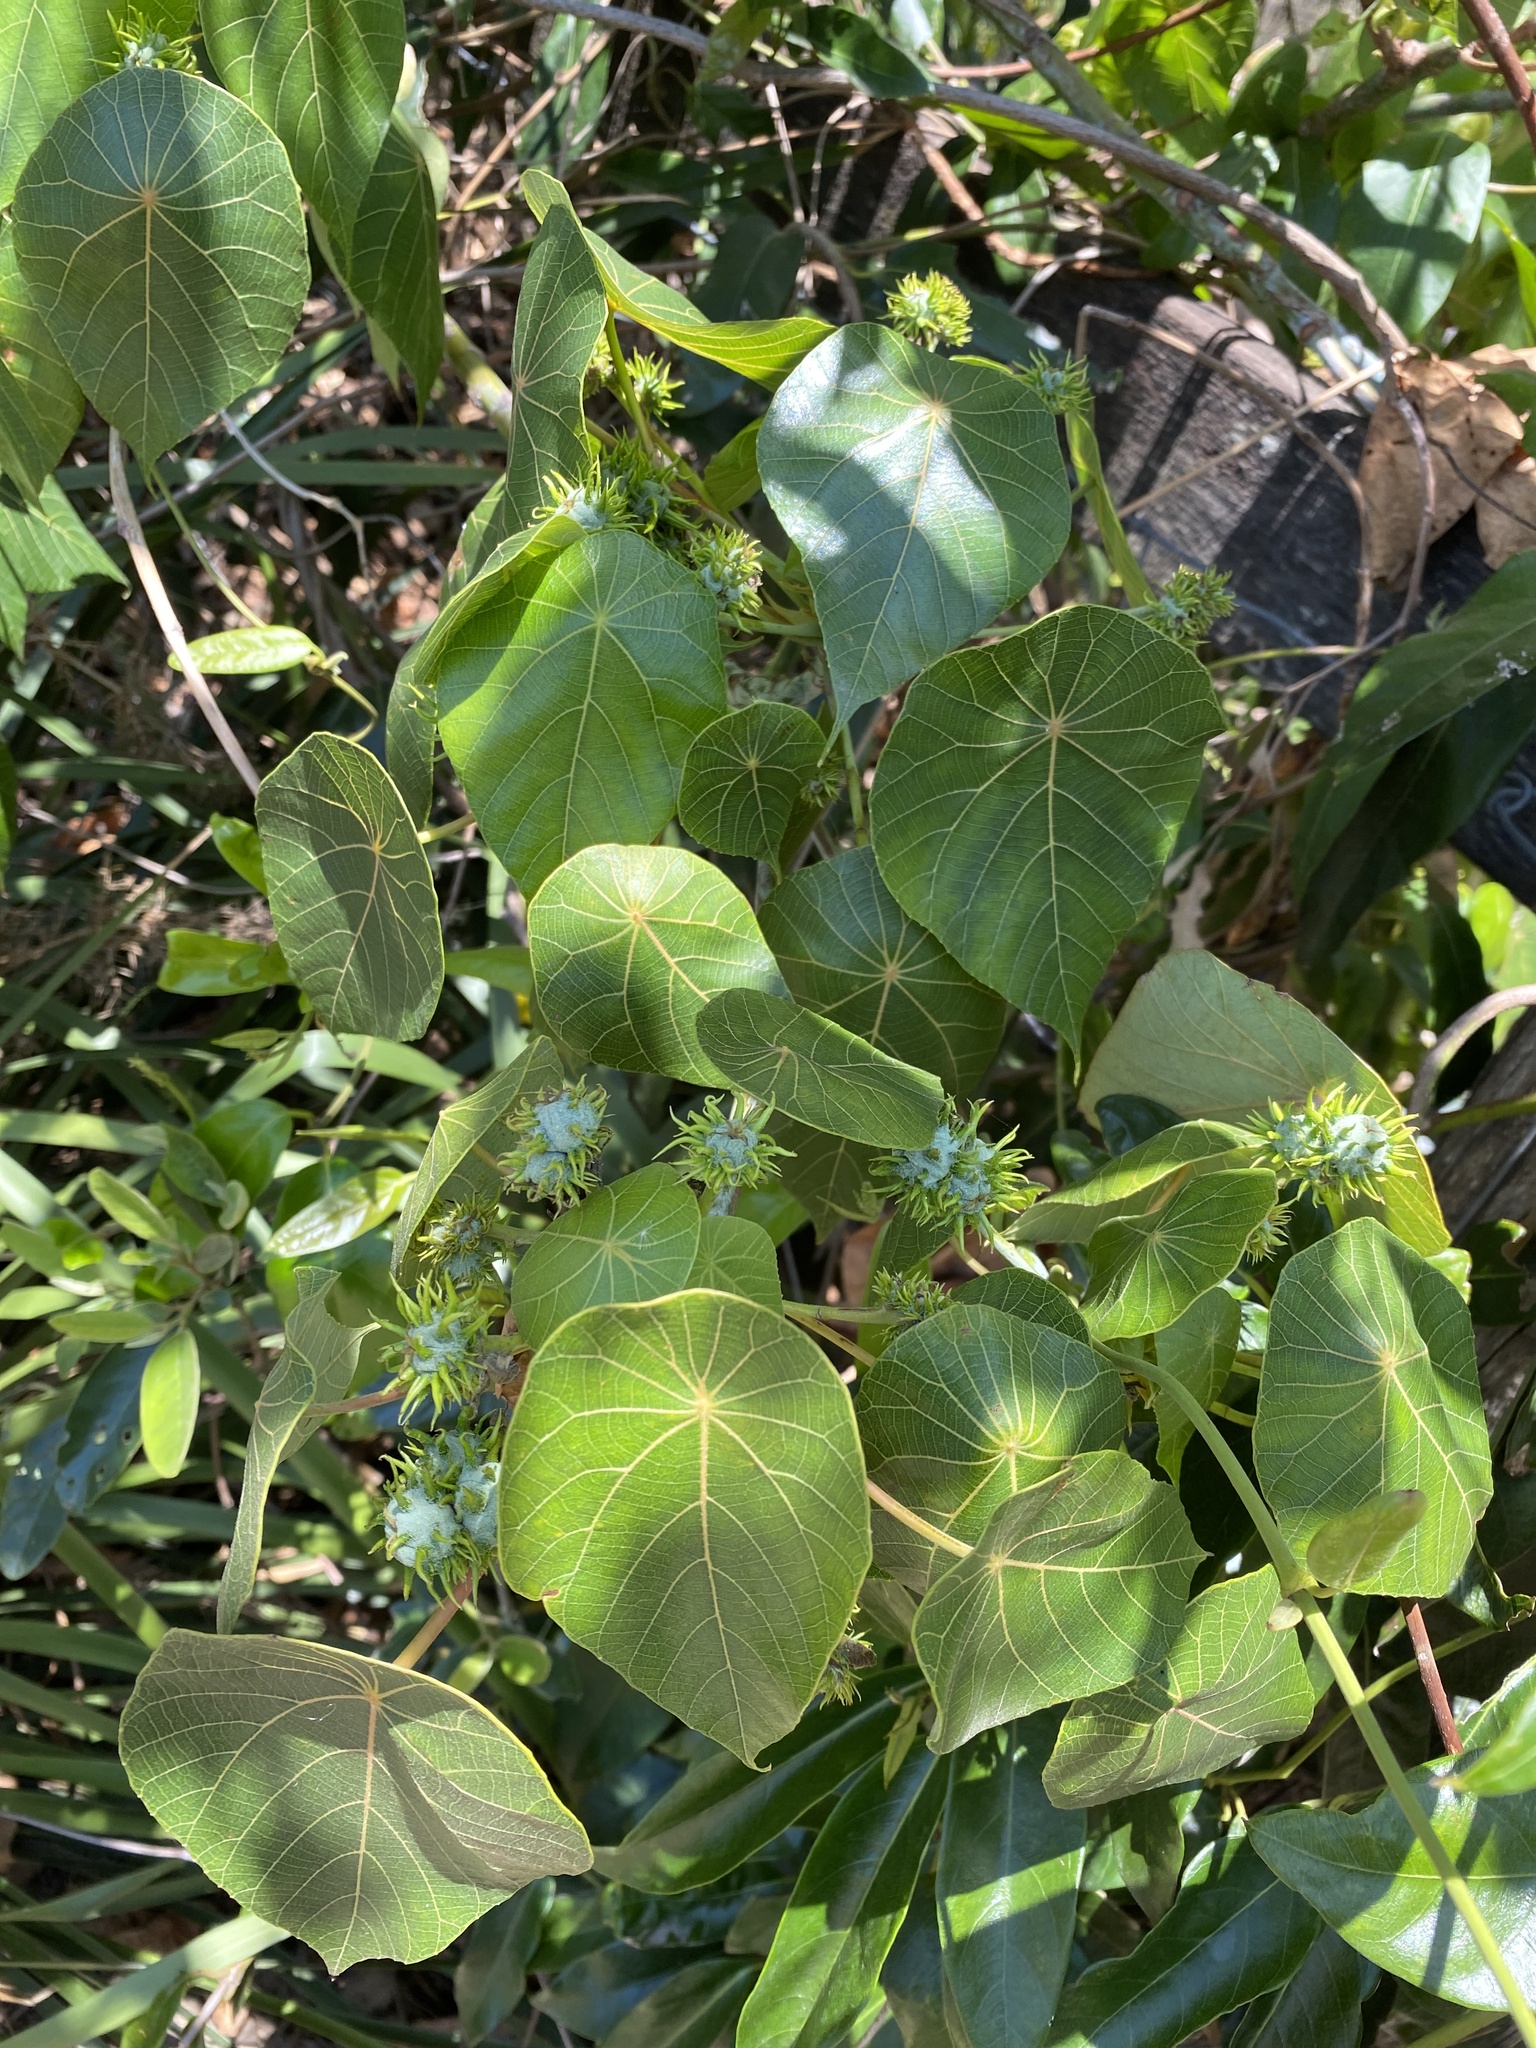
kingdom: Plantae
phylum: Tracheophyta
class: Magnoliopsida
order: Malpighiales
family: Euphorbiaceae
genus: Macaranga
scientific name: Macaranga tanarius
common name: Parasol leaf tree
